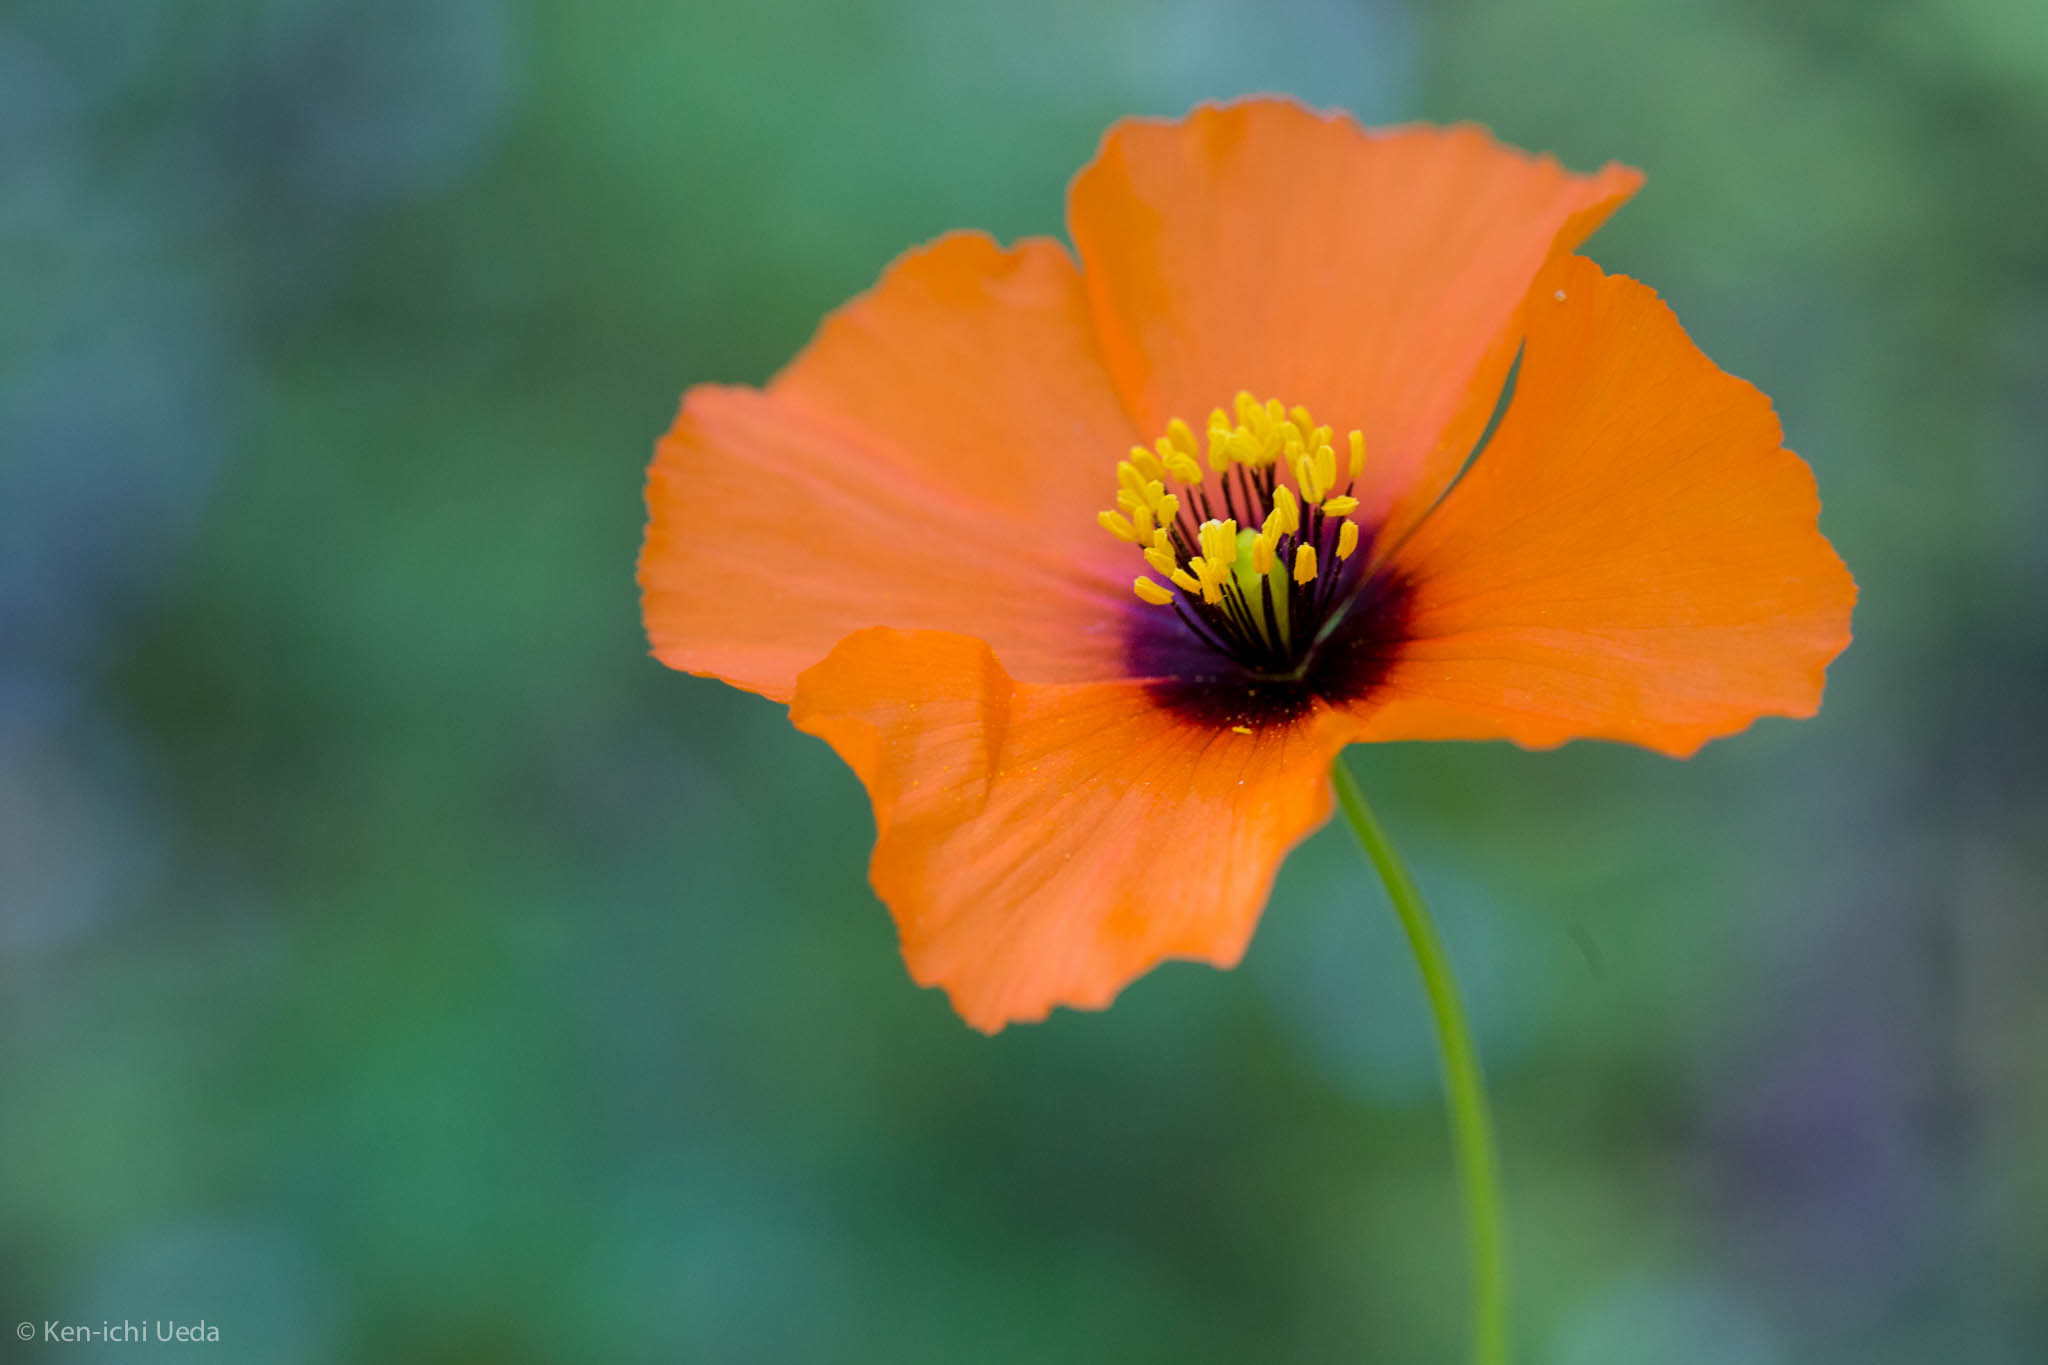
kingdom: Plantae
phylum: Tracheophyta
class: Magnoliopsida
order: Ranunculales
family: Papaveraceae
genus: Stylomecon
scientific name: Stylomecon heterophylla
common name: Flaming-poppy
